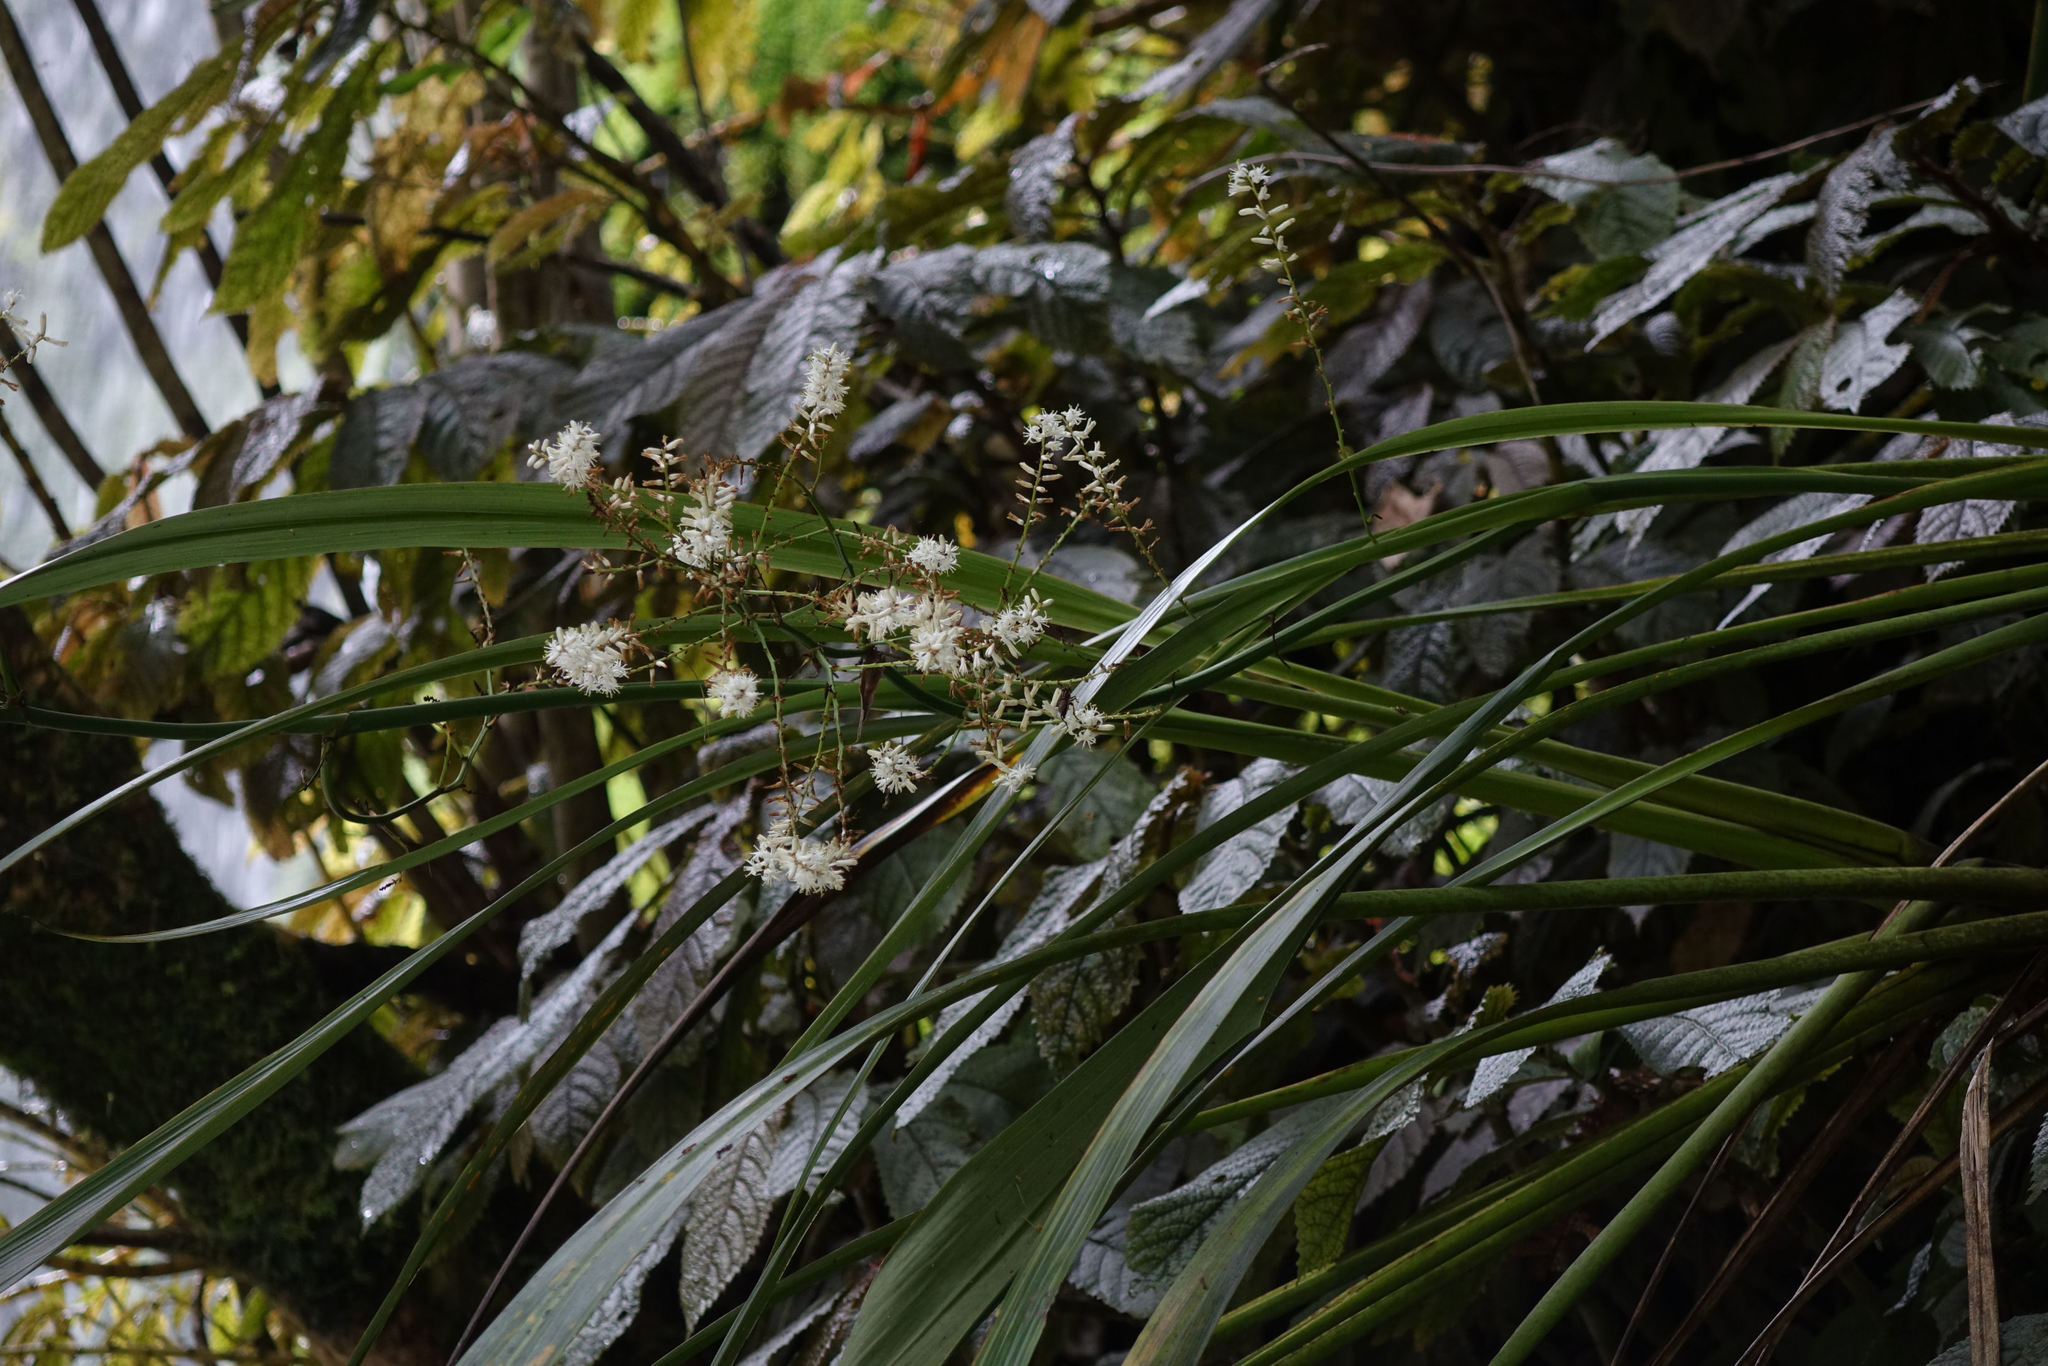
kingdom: Plantae
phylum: Tracheophyta
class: Liliopsida
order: Asparagales
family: Asparagaceae
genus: Cordyline
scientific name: Cordyline banksii
